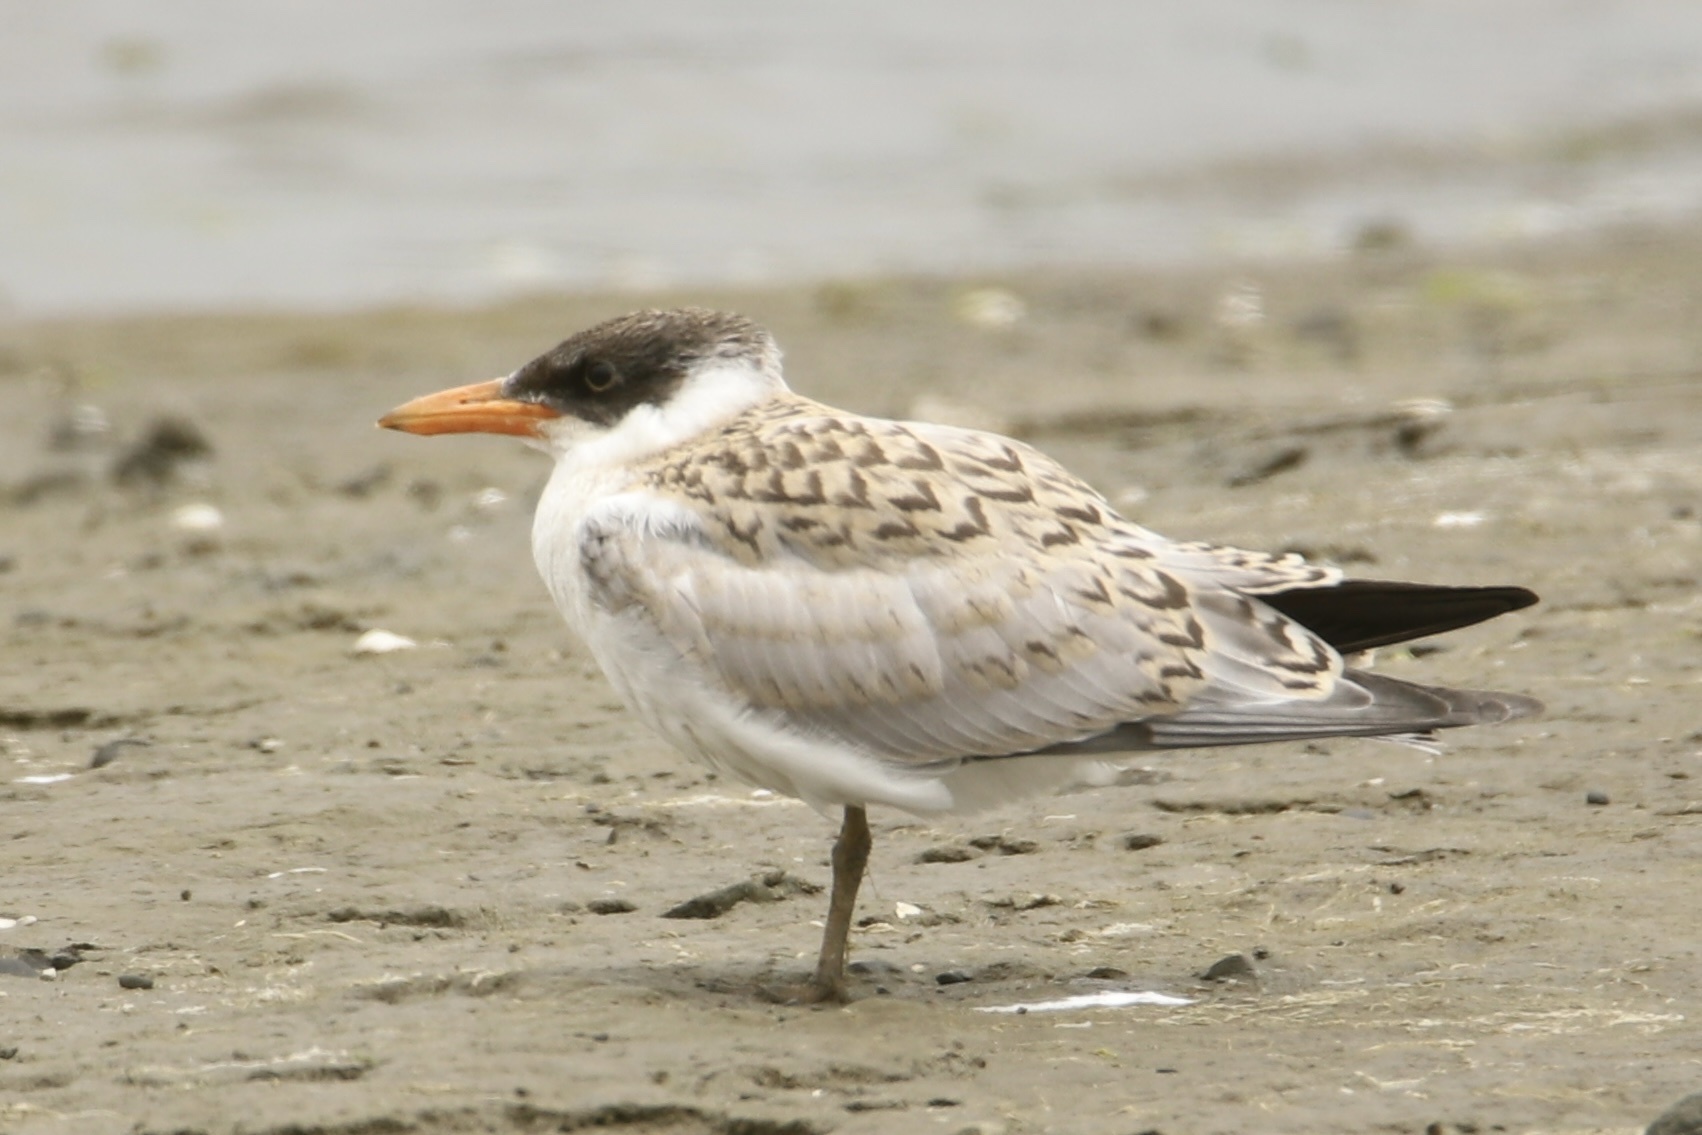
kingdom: Animalia
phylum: Chordata
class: Aves
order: Charadriiformes
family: Laridae
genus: Hydroprogne
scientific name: Hydroprogne caspia
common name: Caspian tern
